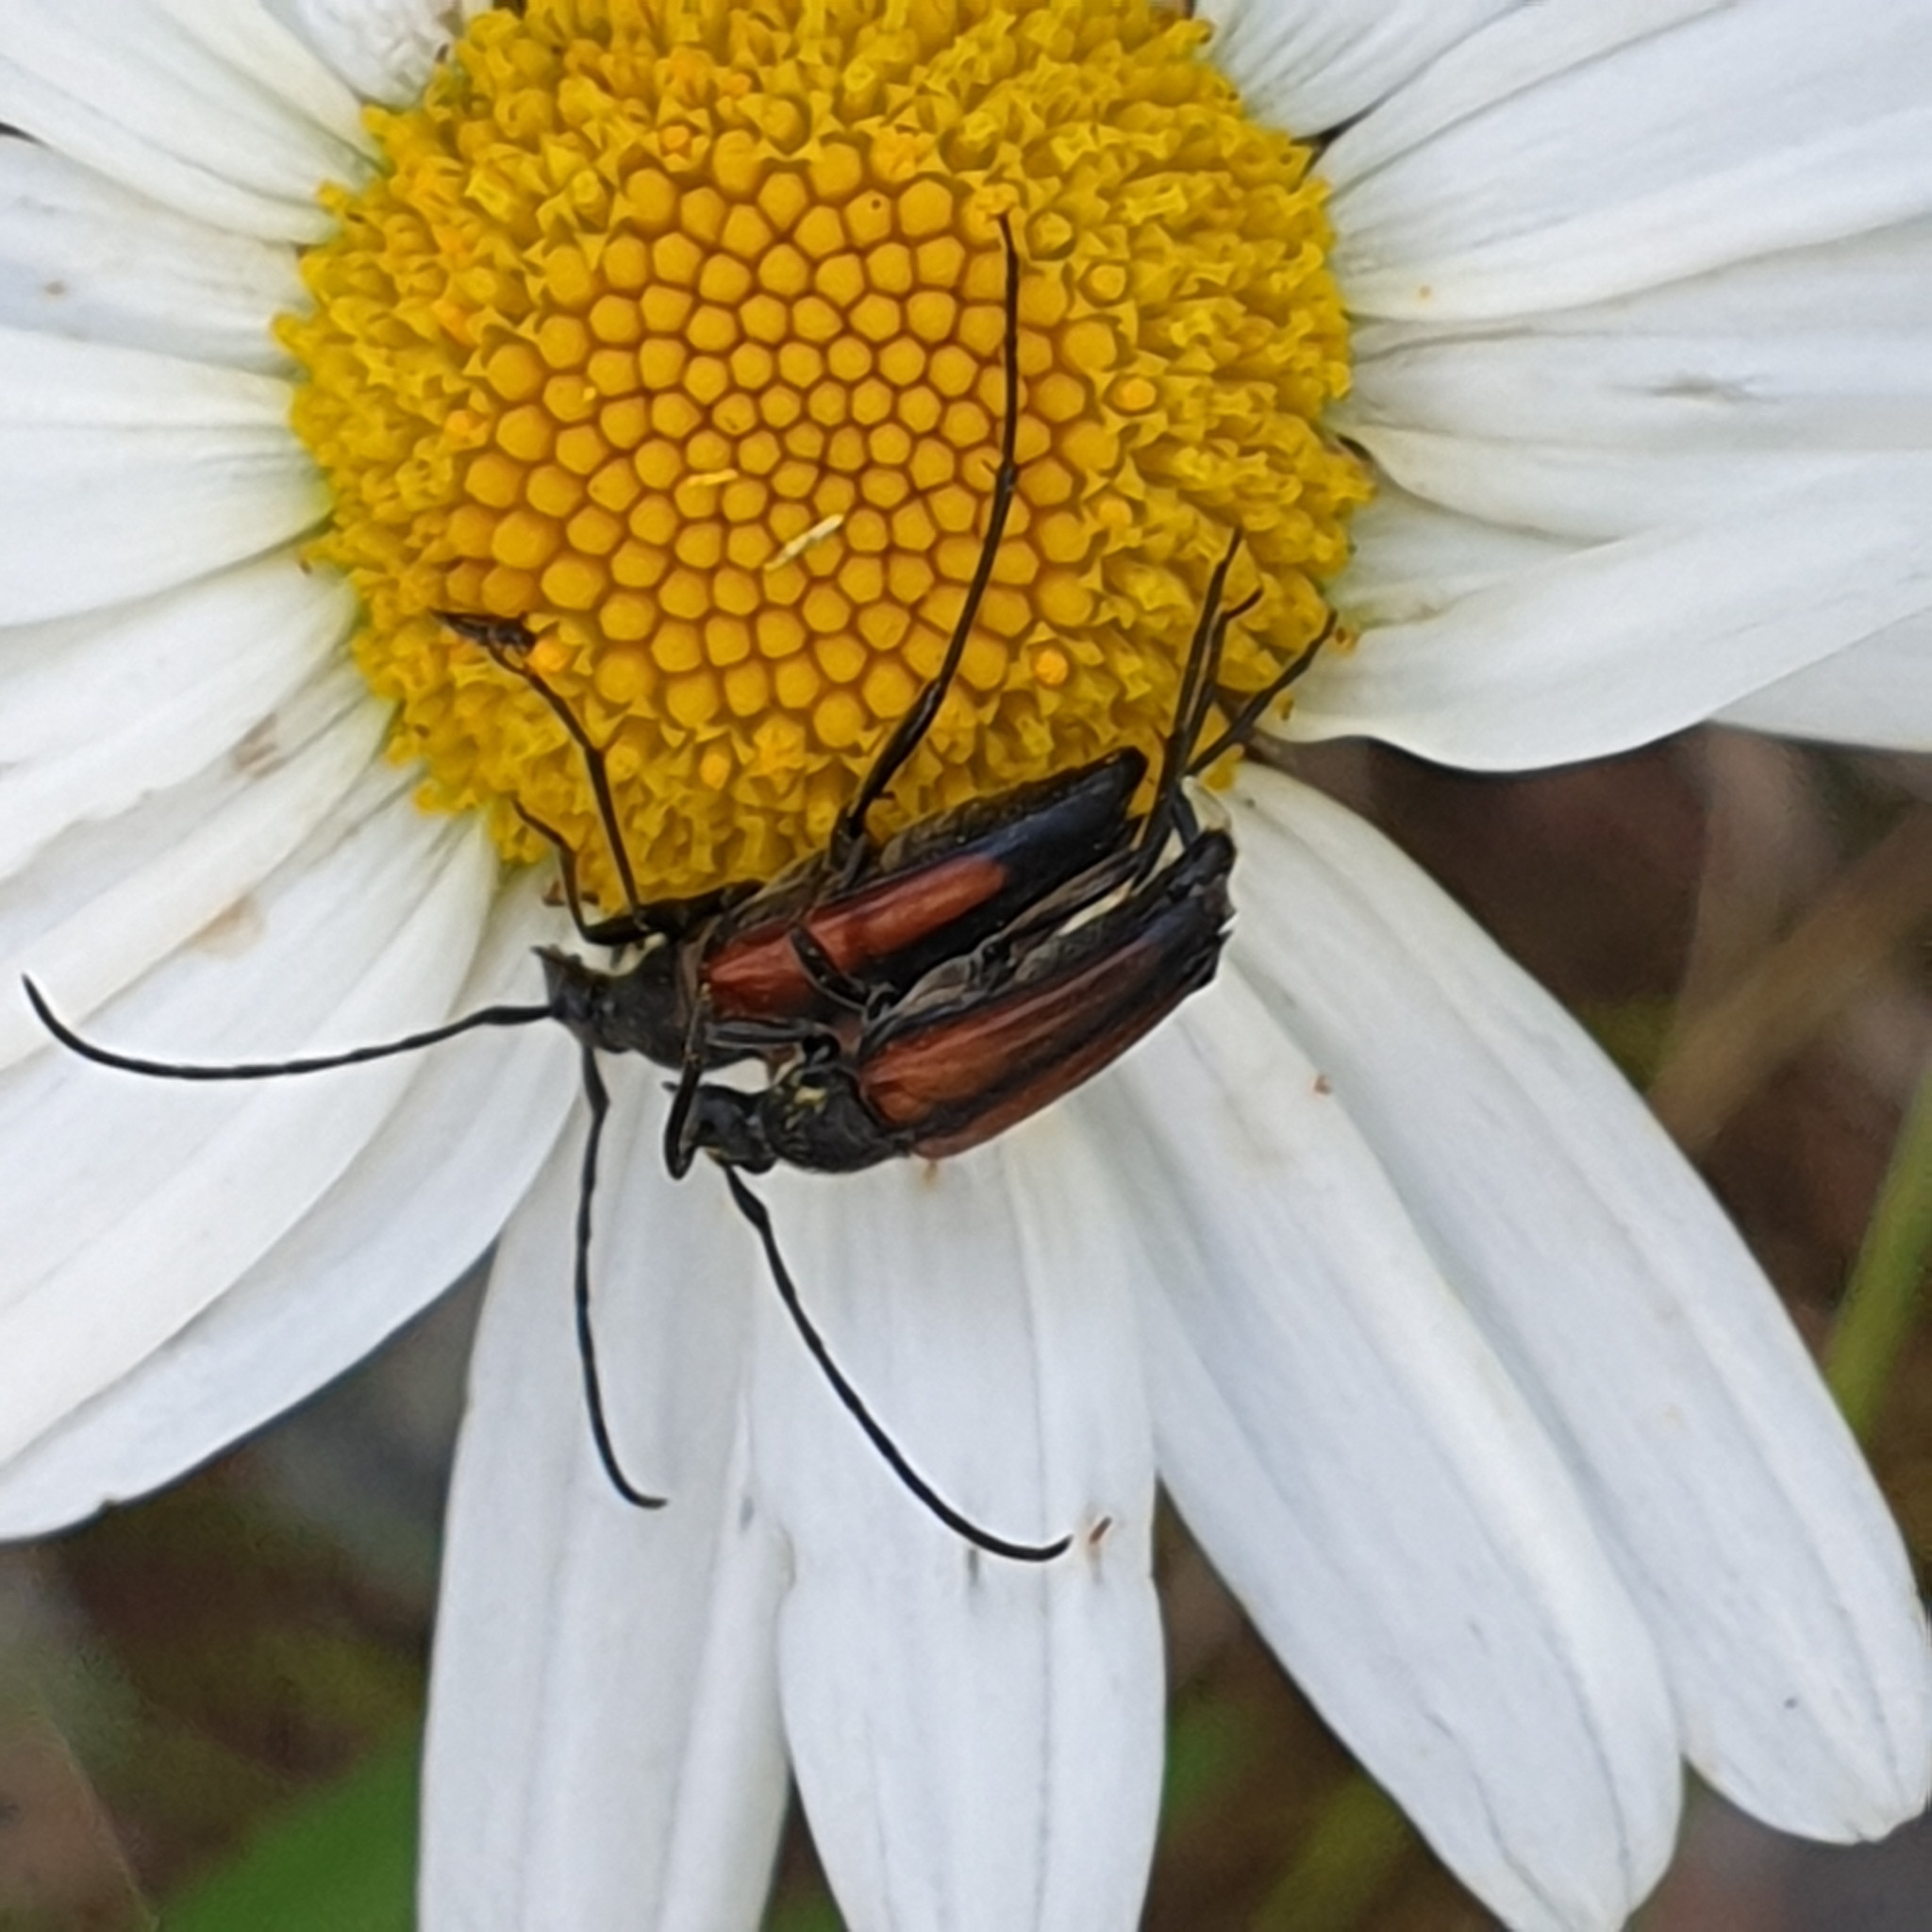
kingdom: Animalia
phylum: Arthropoda
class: Insecta
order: Coleoptera
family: Cerambycidae
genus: Stenurella
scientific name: Stenurella melanura
